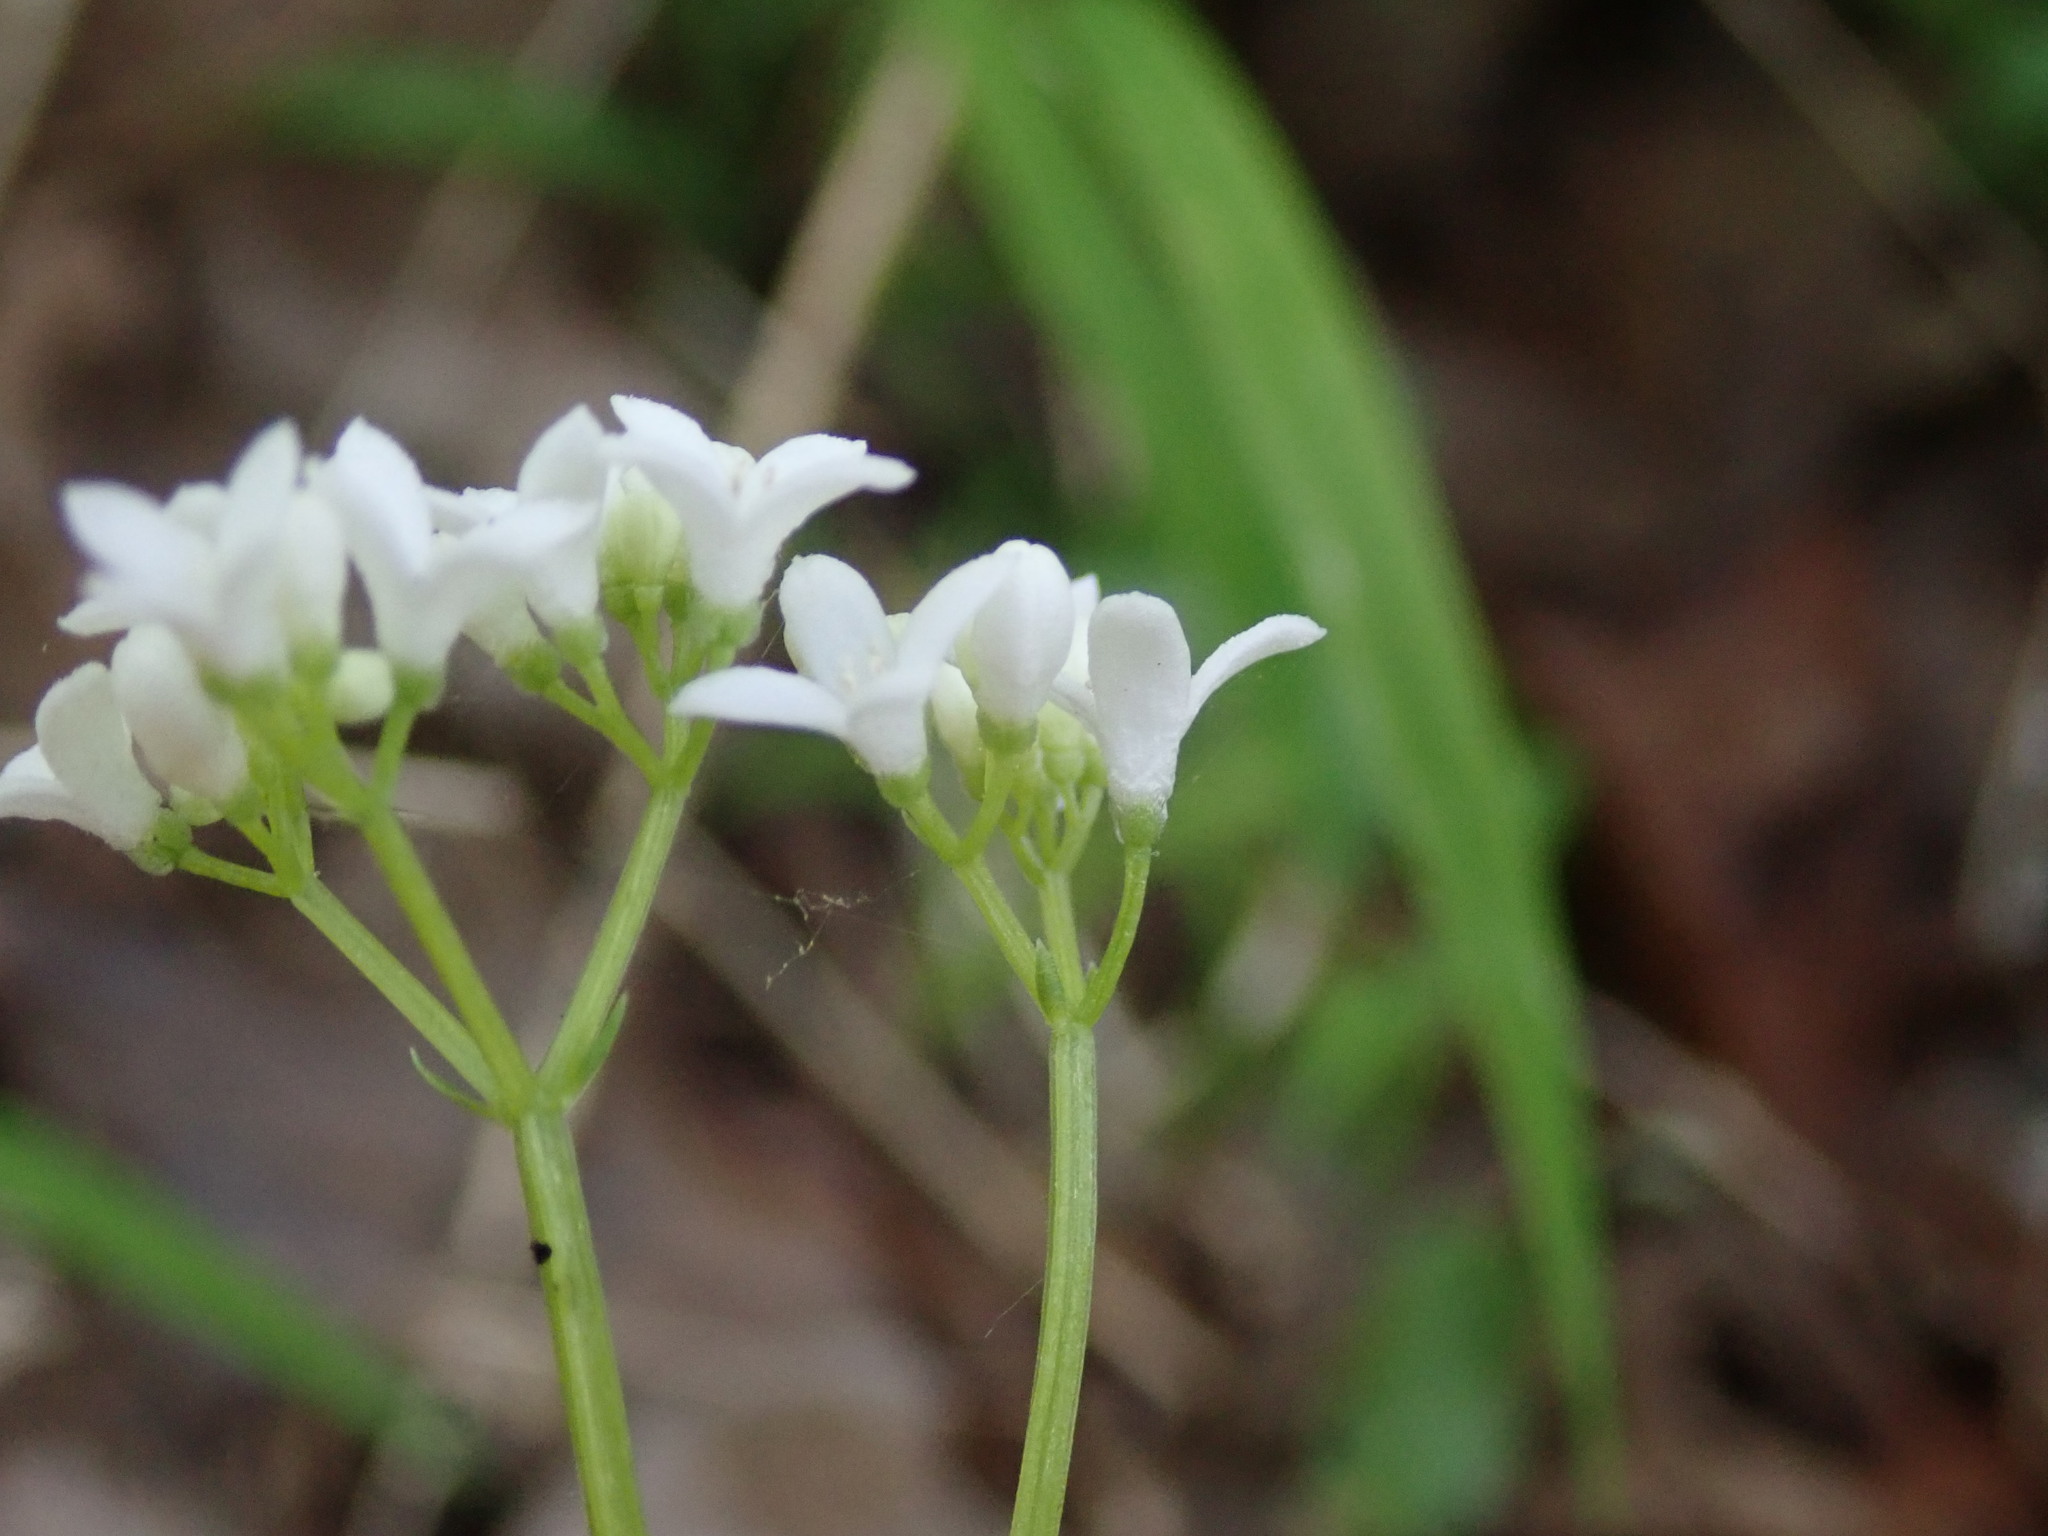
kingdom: Plantae
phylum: Tracheophyta
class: Magnoliopsida
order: Gentianales
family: Rubiaceae
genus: Galium
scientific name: Galium odoratum
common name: Sweet woodruff
